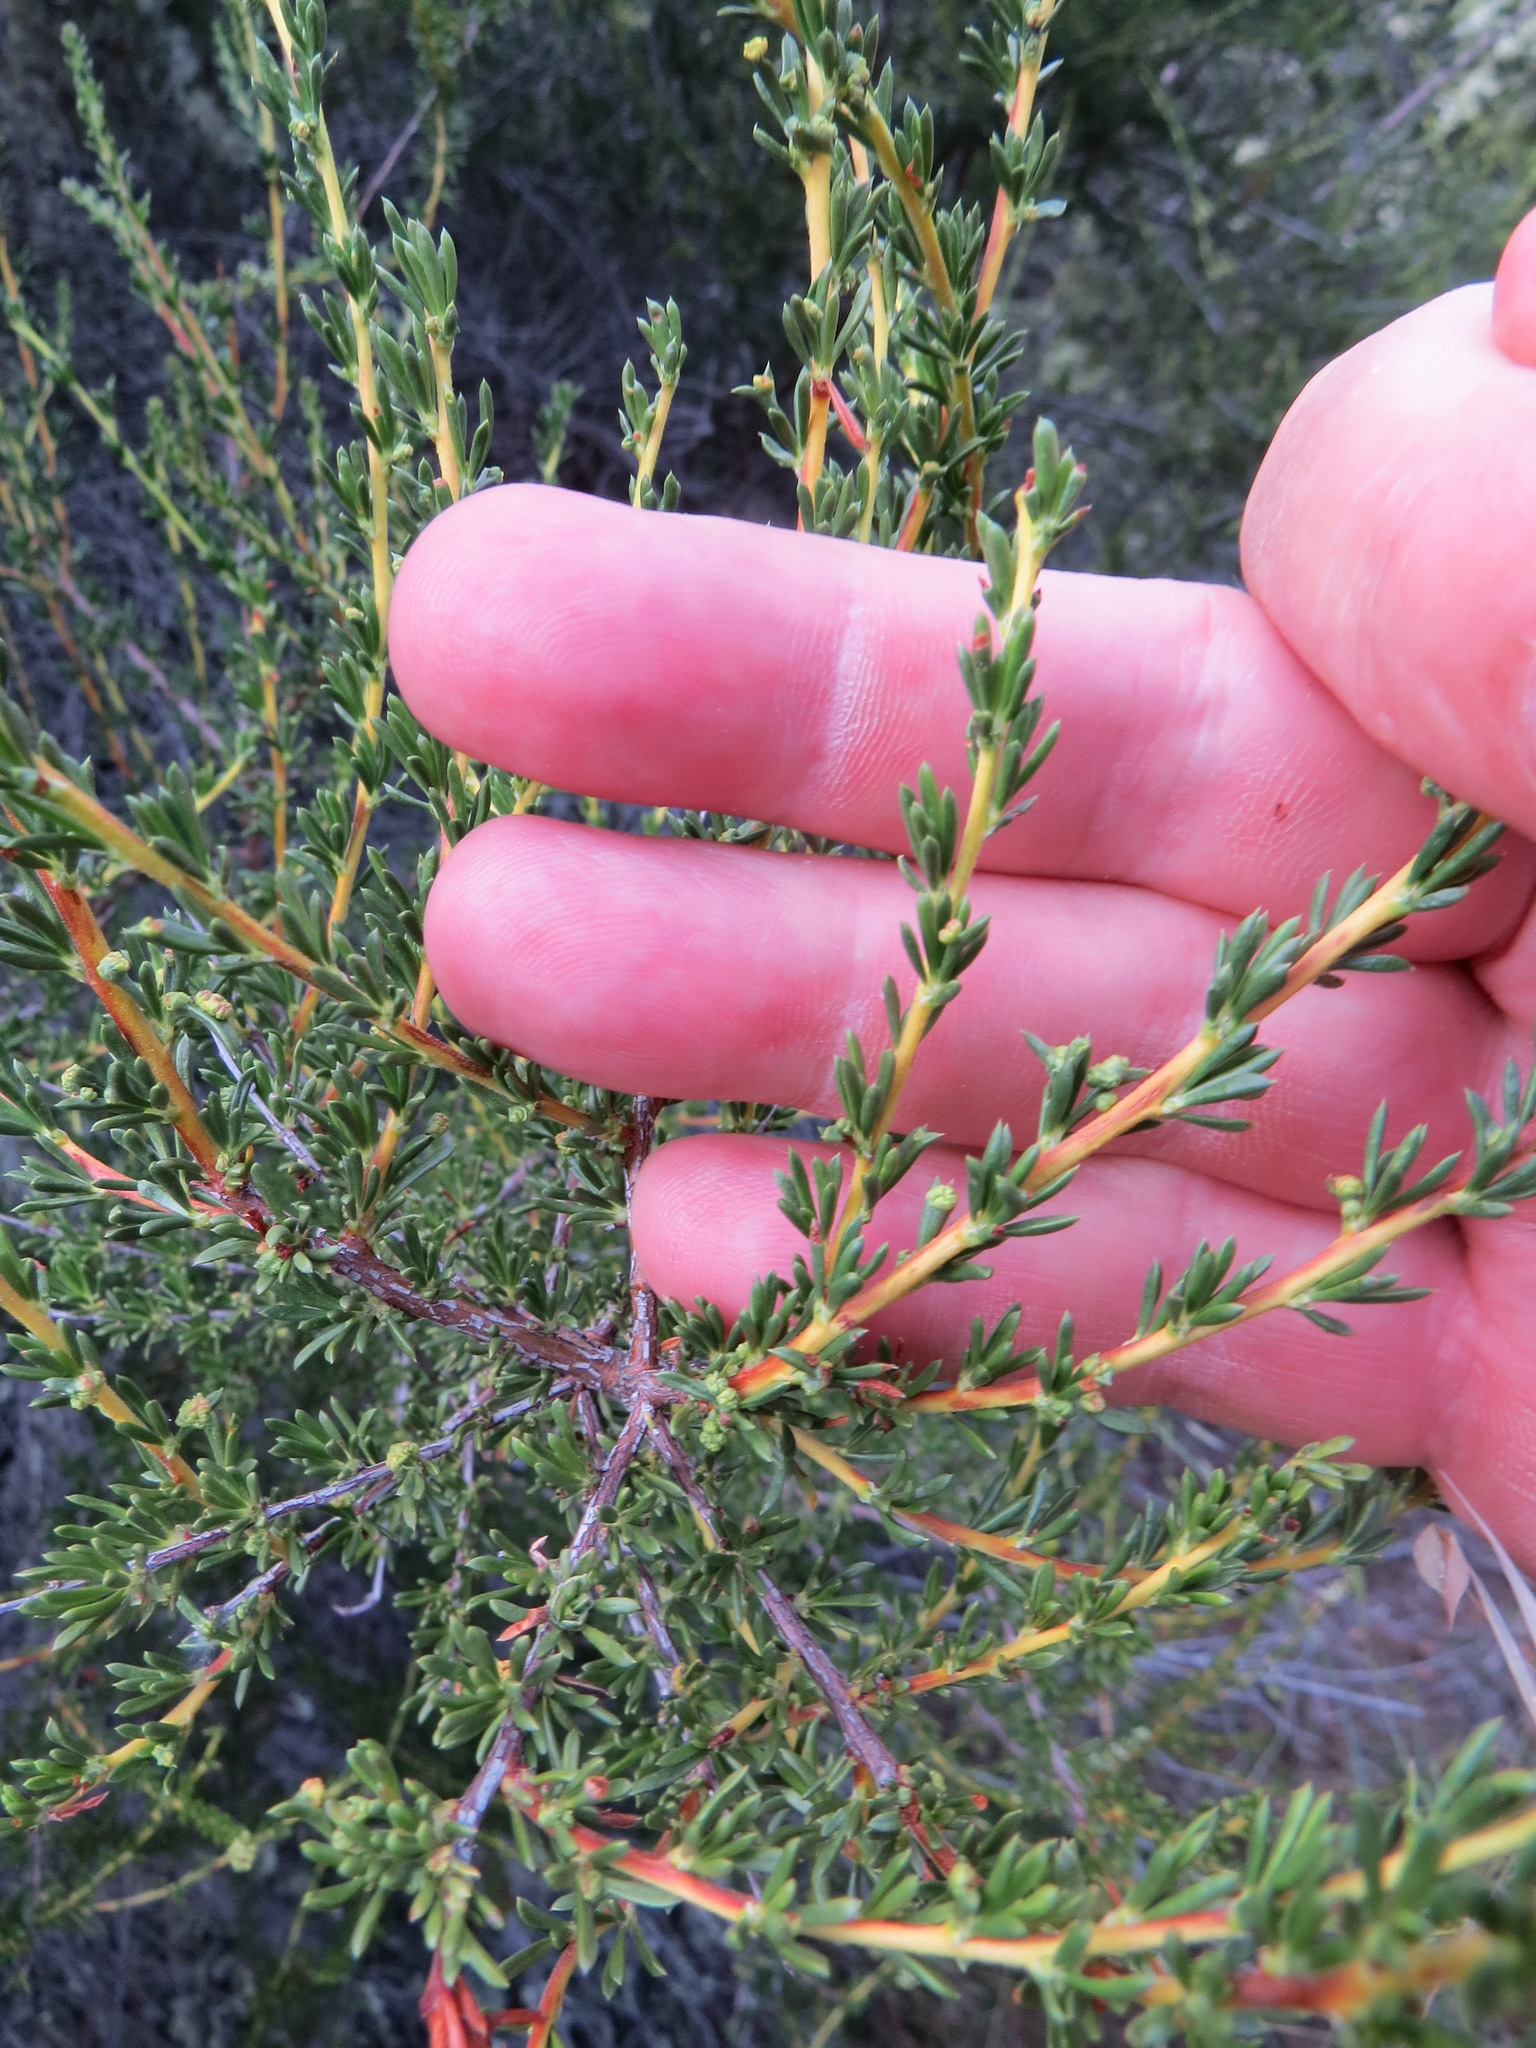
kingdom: Animalia
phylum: Arthropoda
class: Arachnida
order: Trombidiformes
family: Eriophyidae
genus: Eriophyes
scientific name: Eriophyes
